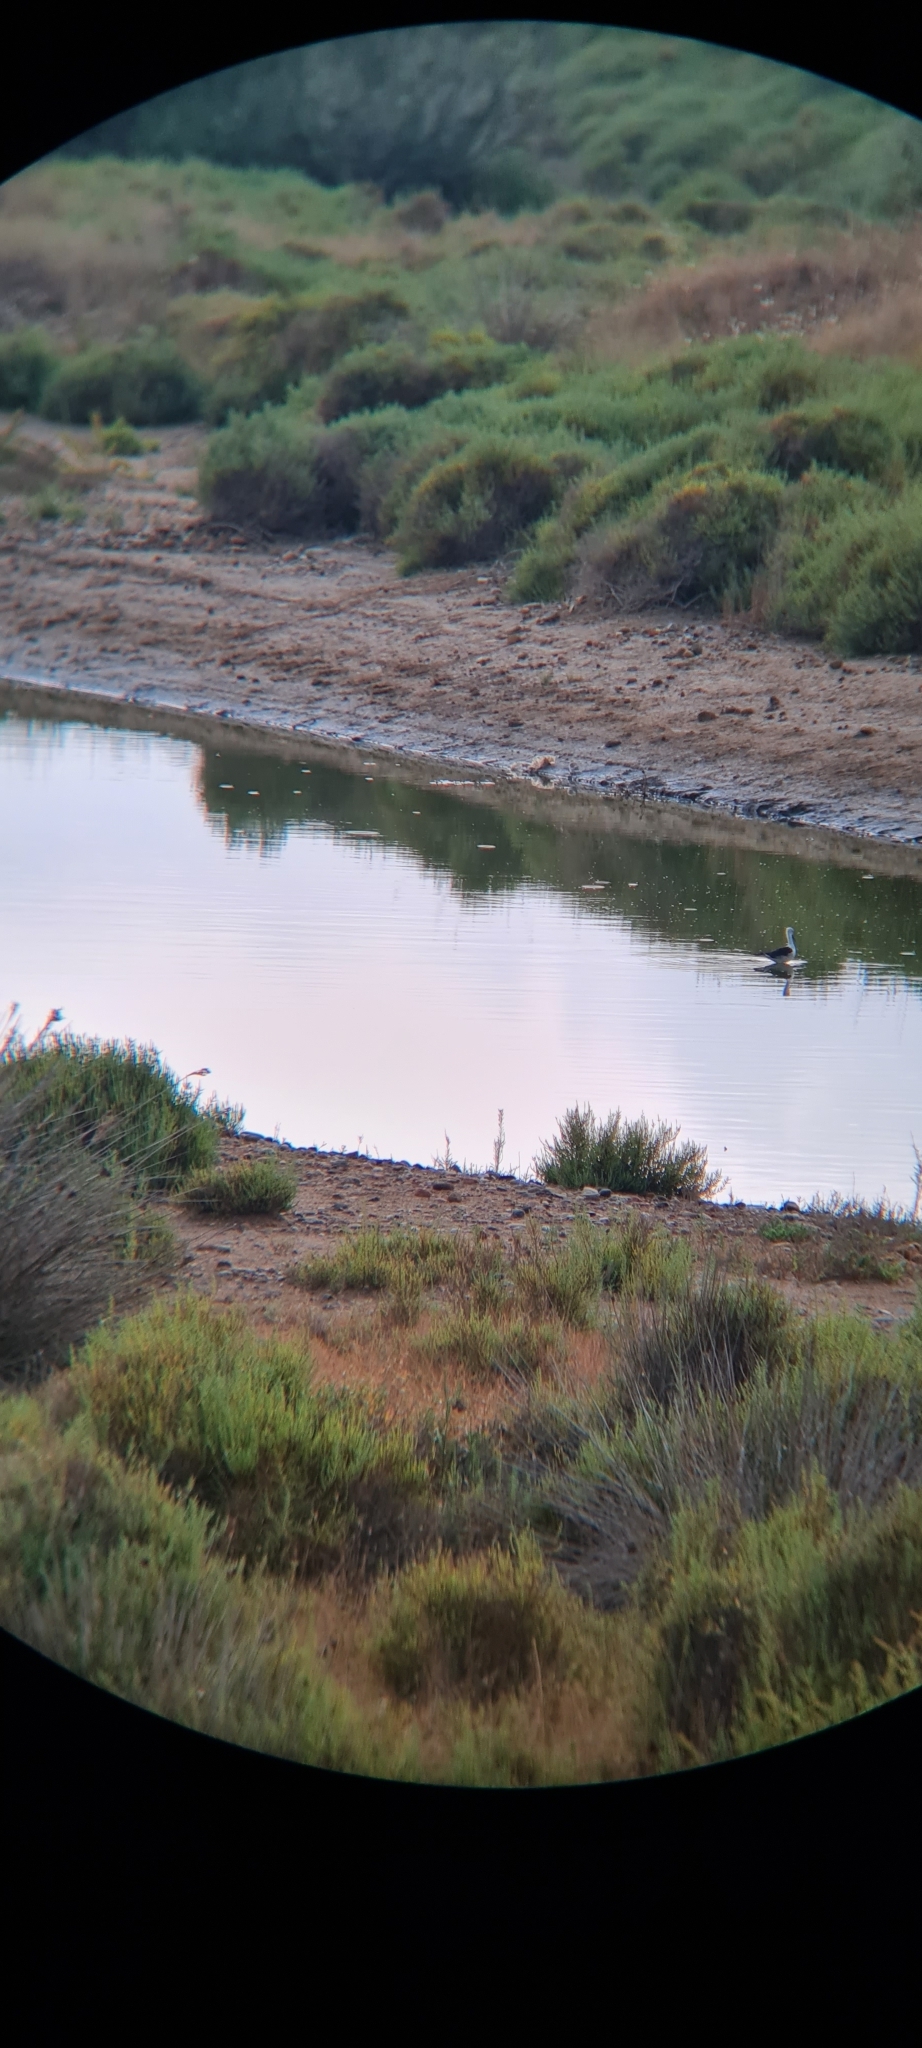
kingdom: Animalia
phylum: Chordata
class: Aves
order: Charadriiformes
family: Recurvirostridae
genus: Himantopus
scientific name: Himantopus himantopus
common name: Black-winged stilt
